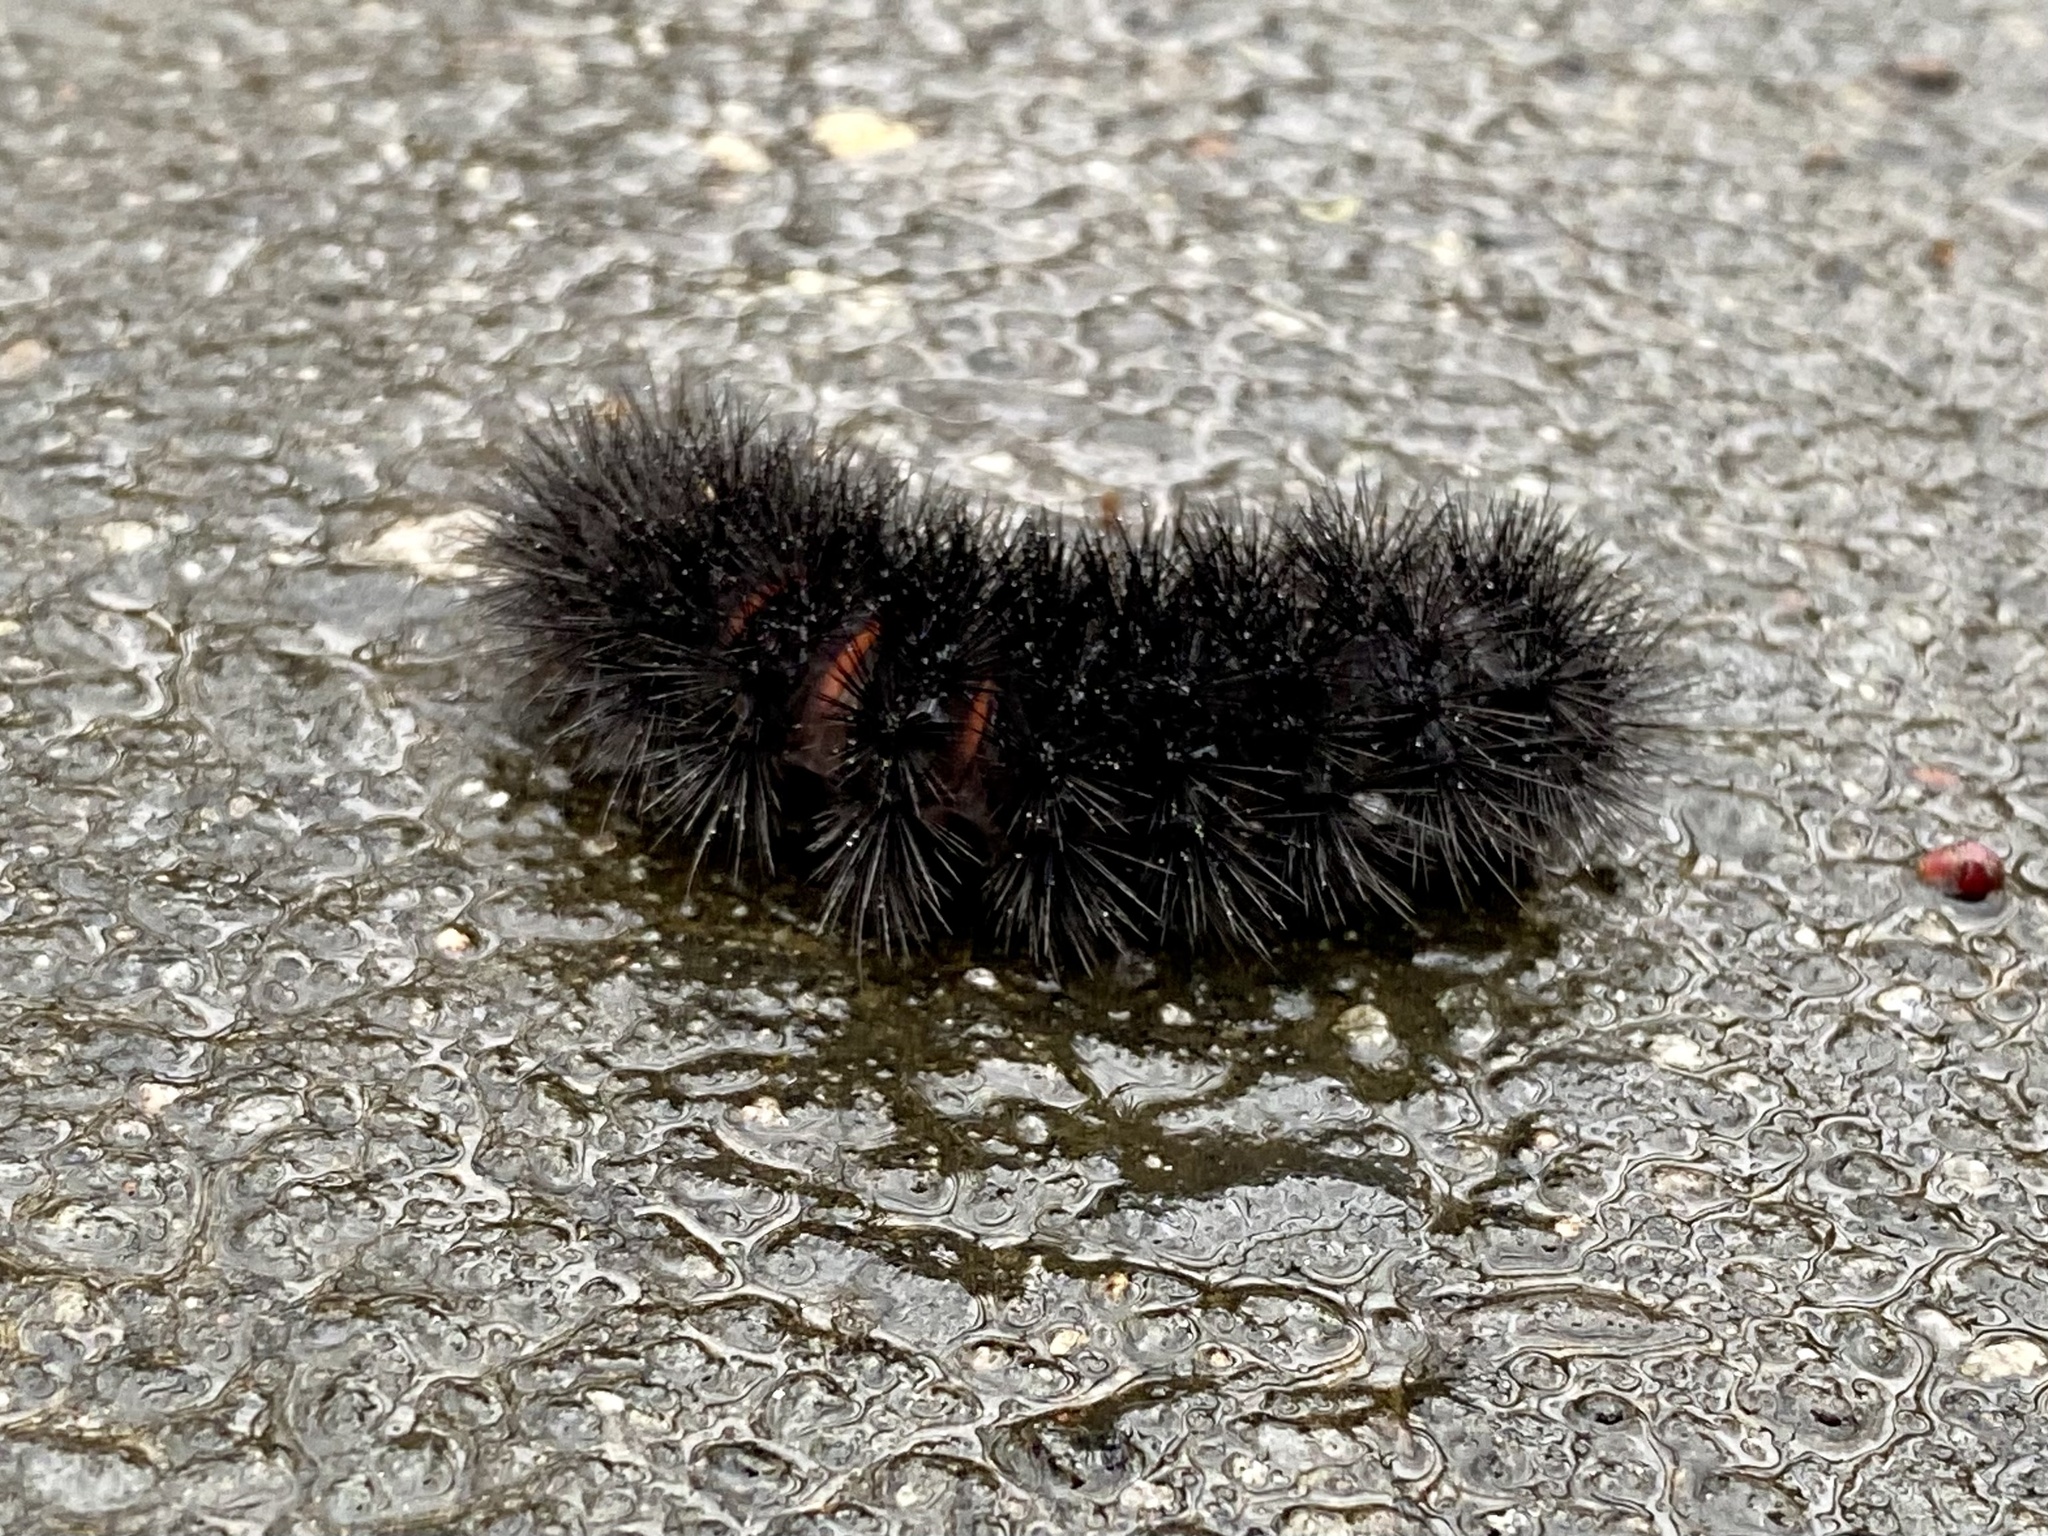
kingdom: Animalia
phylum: Arthropoda
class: Insecta
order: Lepidoptera
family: Erebidae
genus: Hypercompe
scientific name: Hypercompe scribonia
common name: Giant leopard moth
